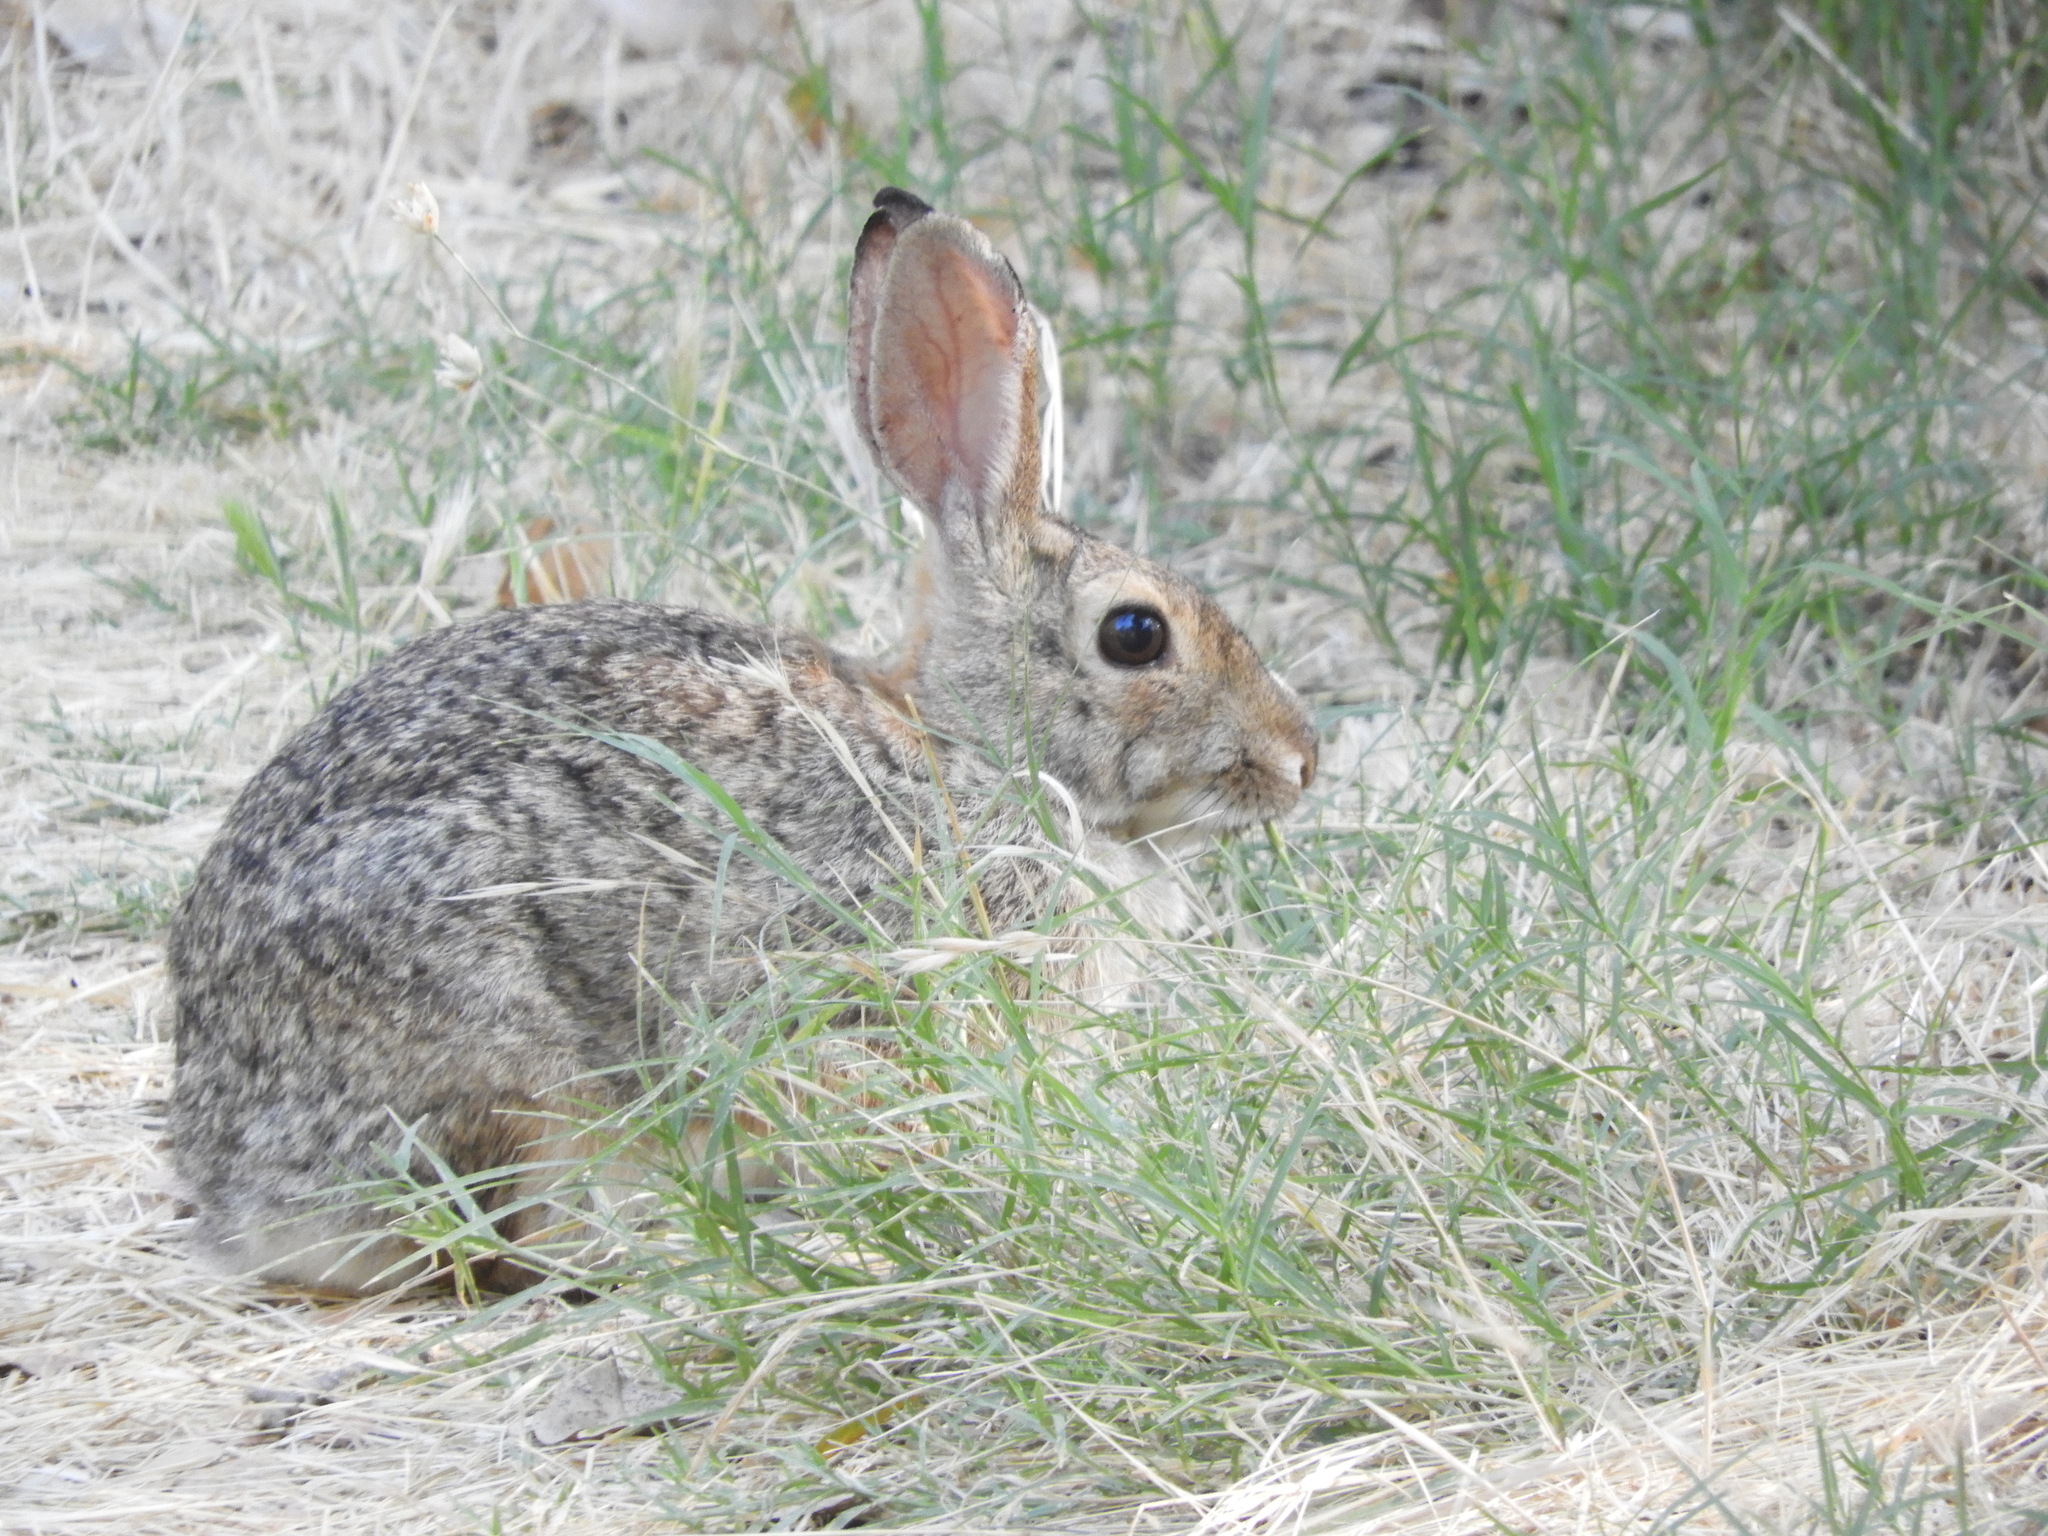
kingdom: Animalia
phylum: Chordata
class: Mammalia
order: Lagomorpha
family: Leporidae
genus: Sylvilagus
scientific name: Sylvilagus audubonii
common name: Desert cottontail
